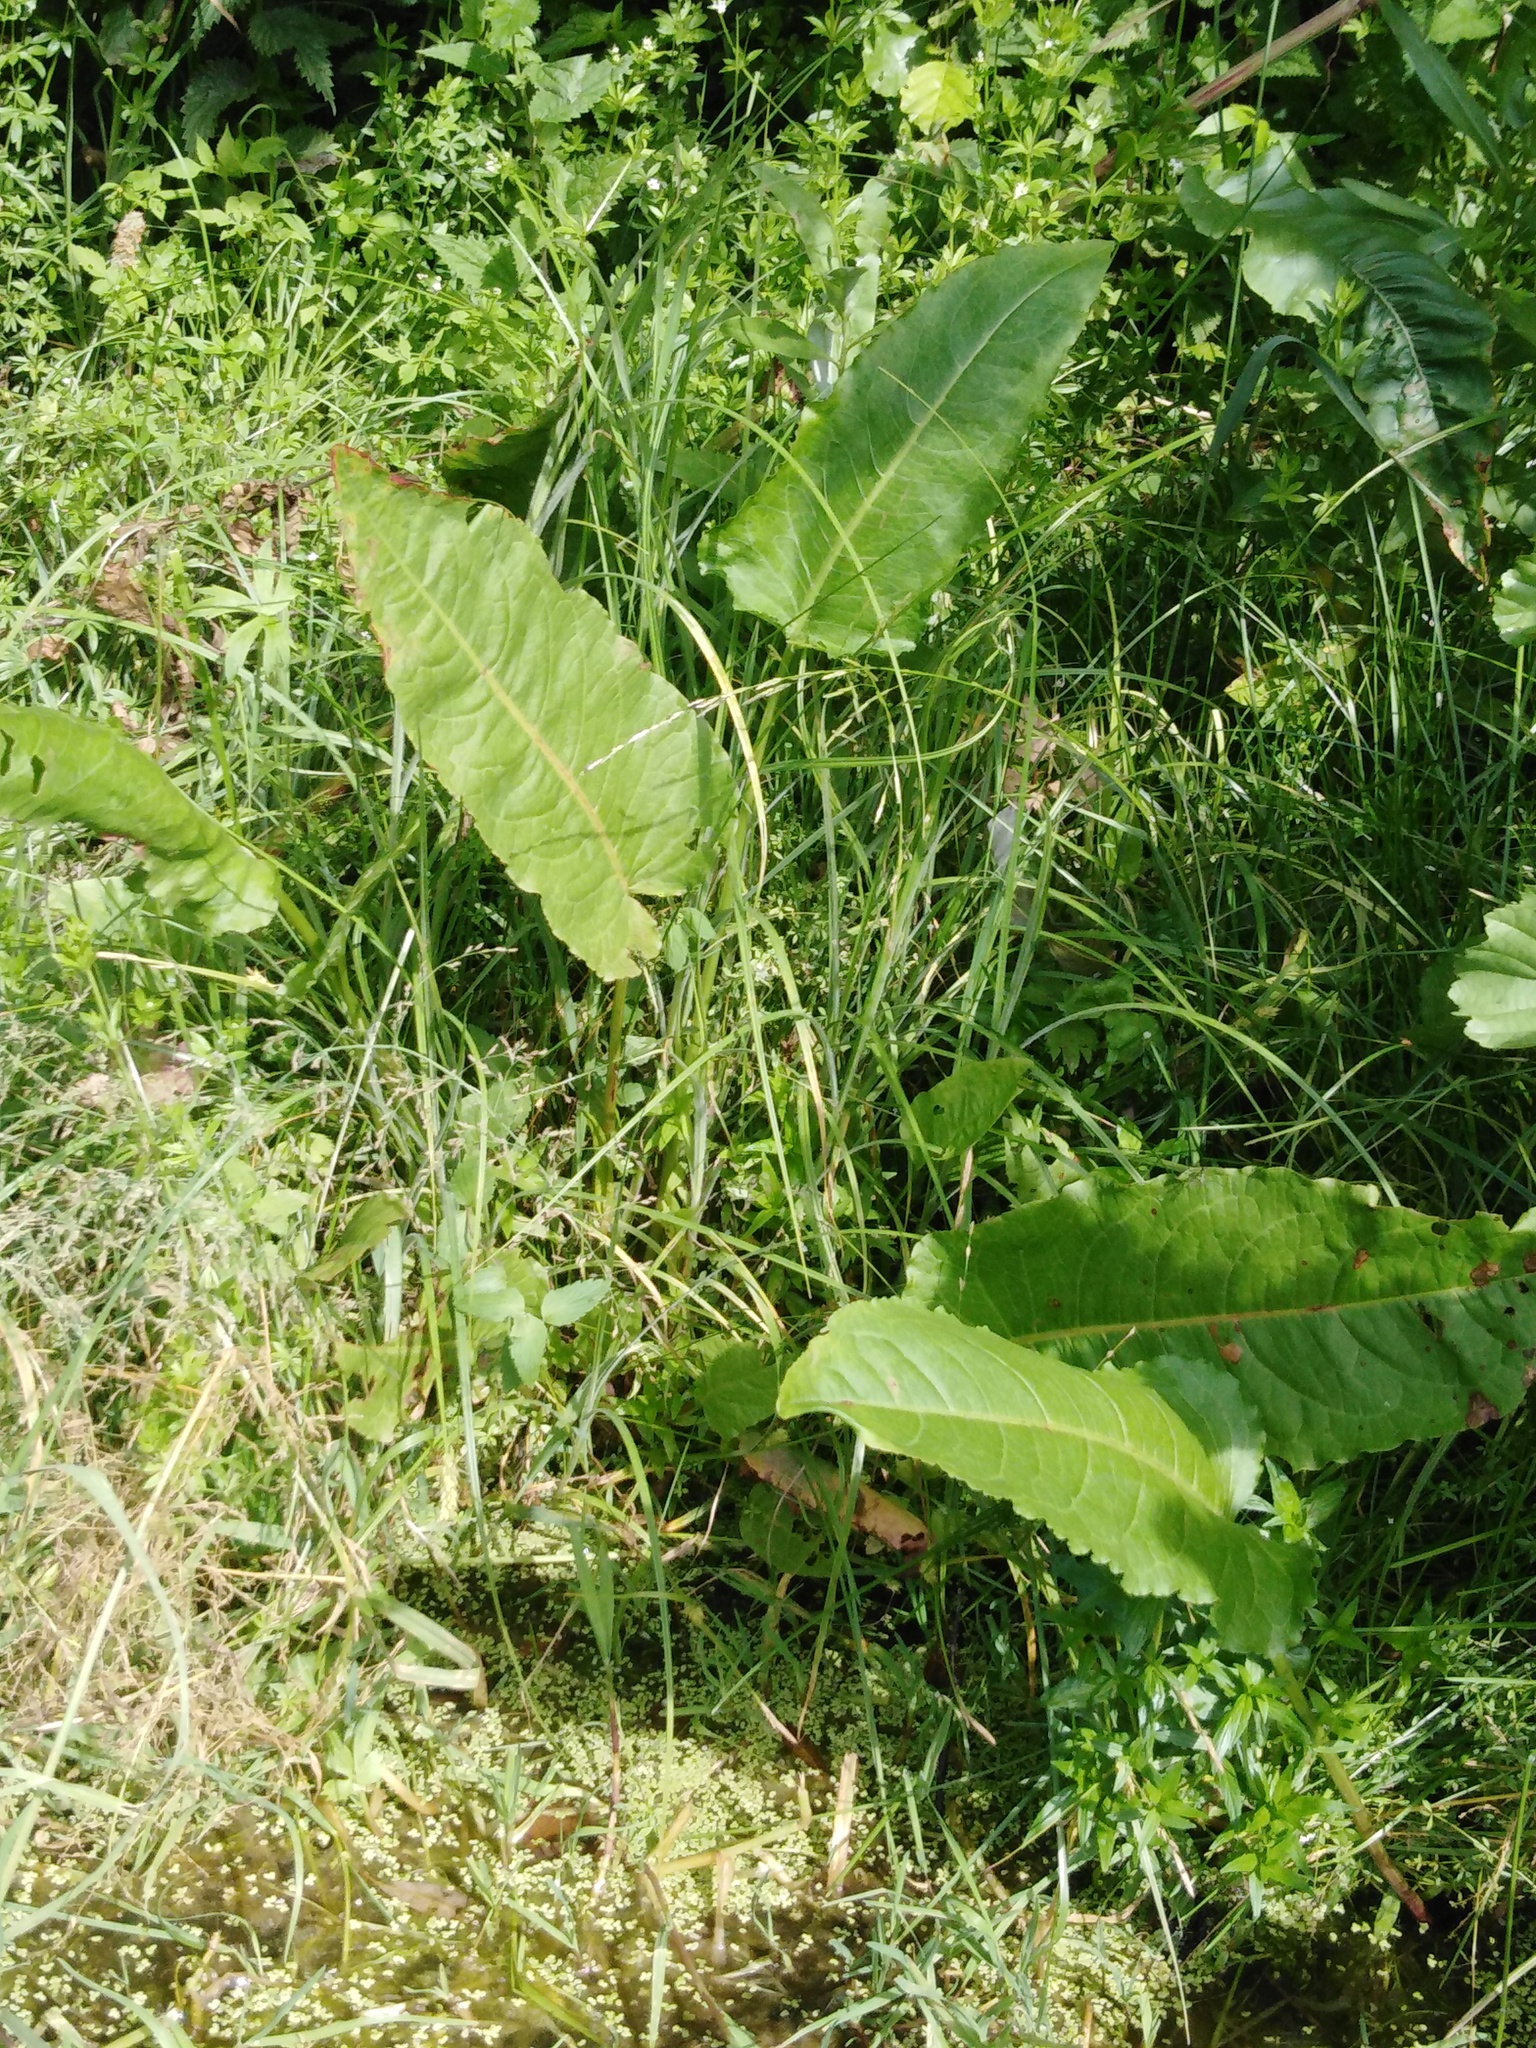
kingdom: Plantae
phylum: Tracheophyta
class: Magnoliopsida
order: Caryophyllales
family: Polygonaceae
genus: Rumex
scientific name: Rumex aquaticus
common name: Scottish dock
